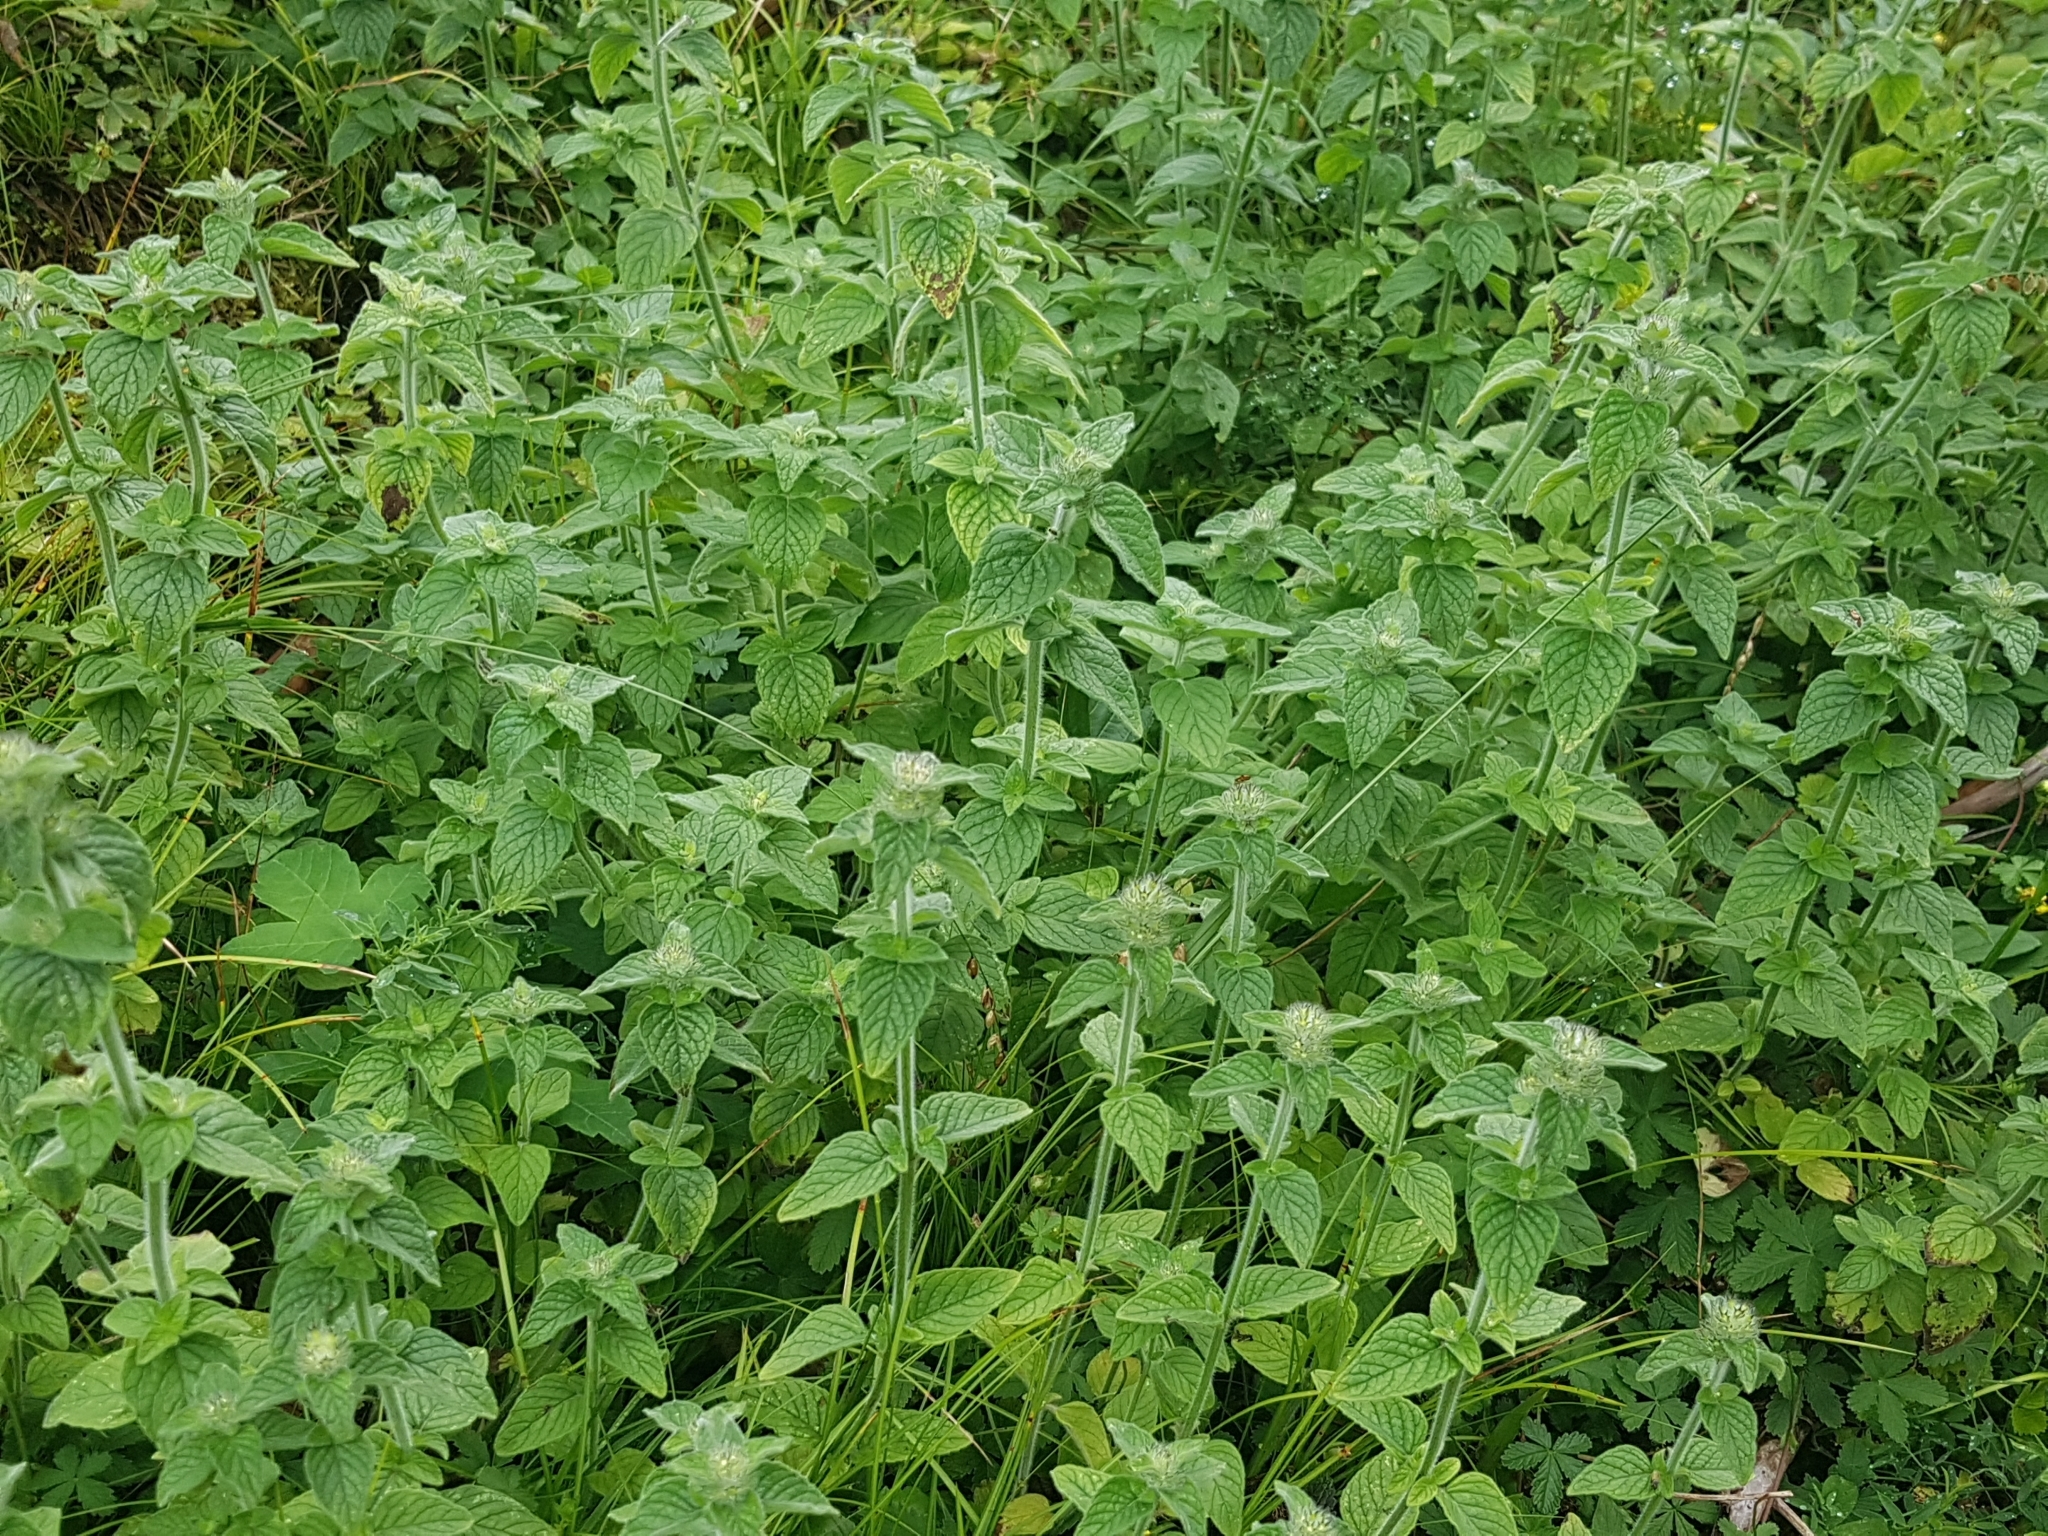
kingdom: Plantae
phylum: Tracheophyta
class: Magnoliopsida
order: Lamiales
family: Lamiaceae
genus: Clinopodium
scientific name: Clinopodium vulgare
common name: Wild basil
